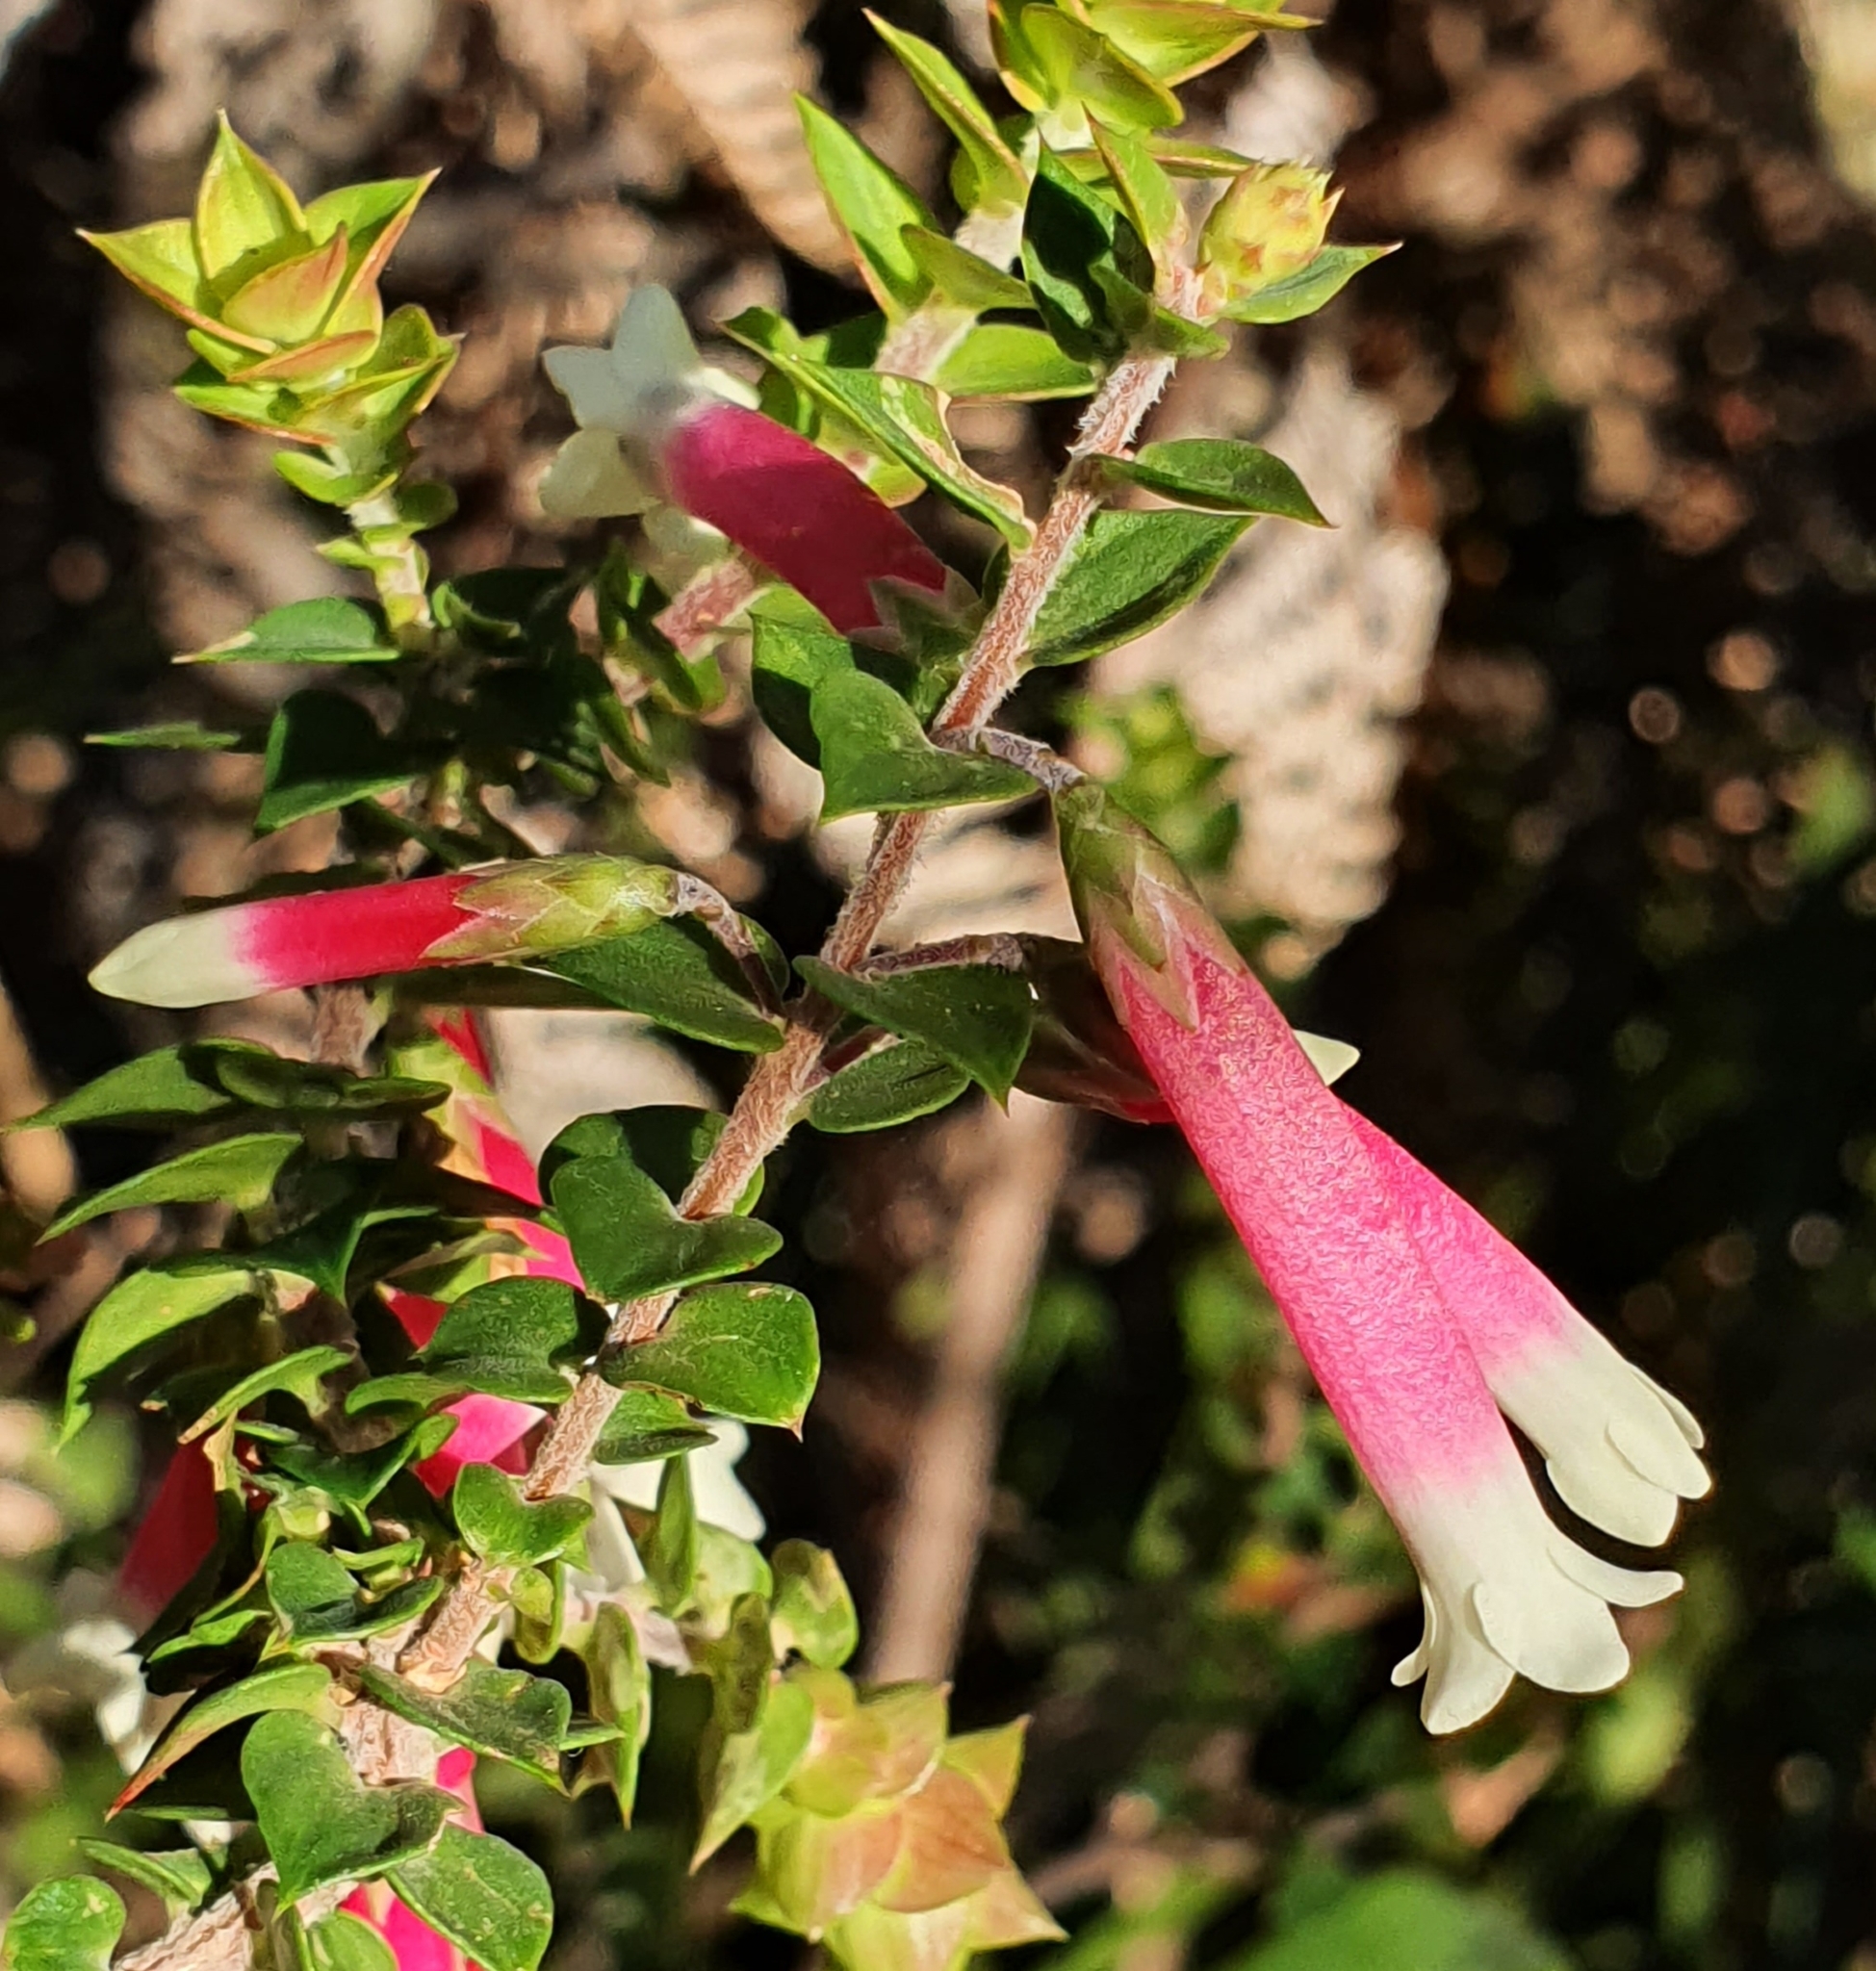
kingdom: Plantae
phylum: Tracheophyta
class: Magnoliopsida
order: Ericales
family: Ericaceae
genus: Epacris
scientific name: Epacris longiflora
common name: Fuchsia-heath
